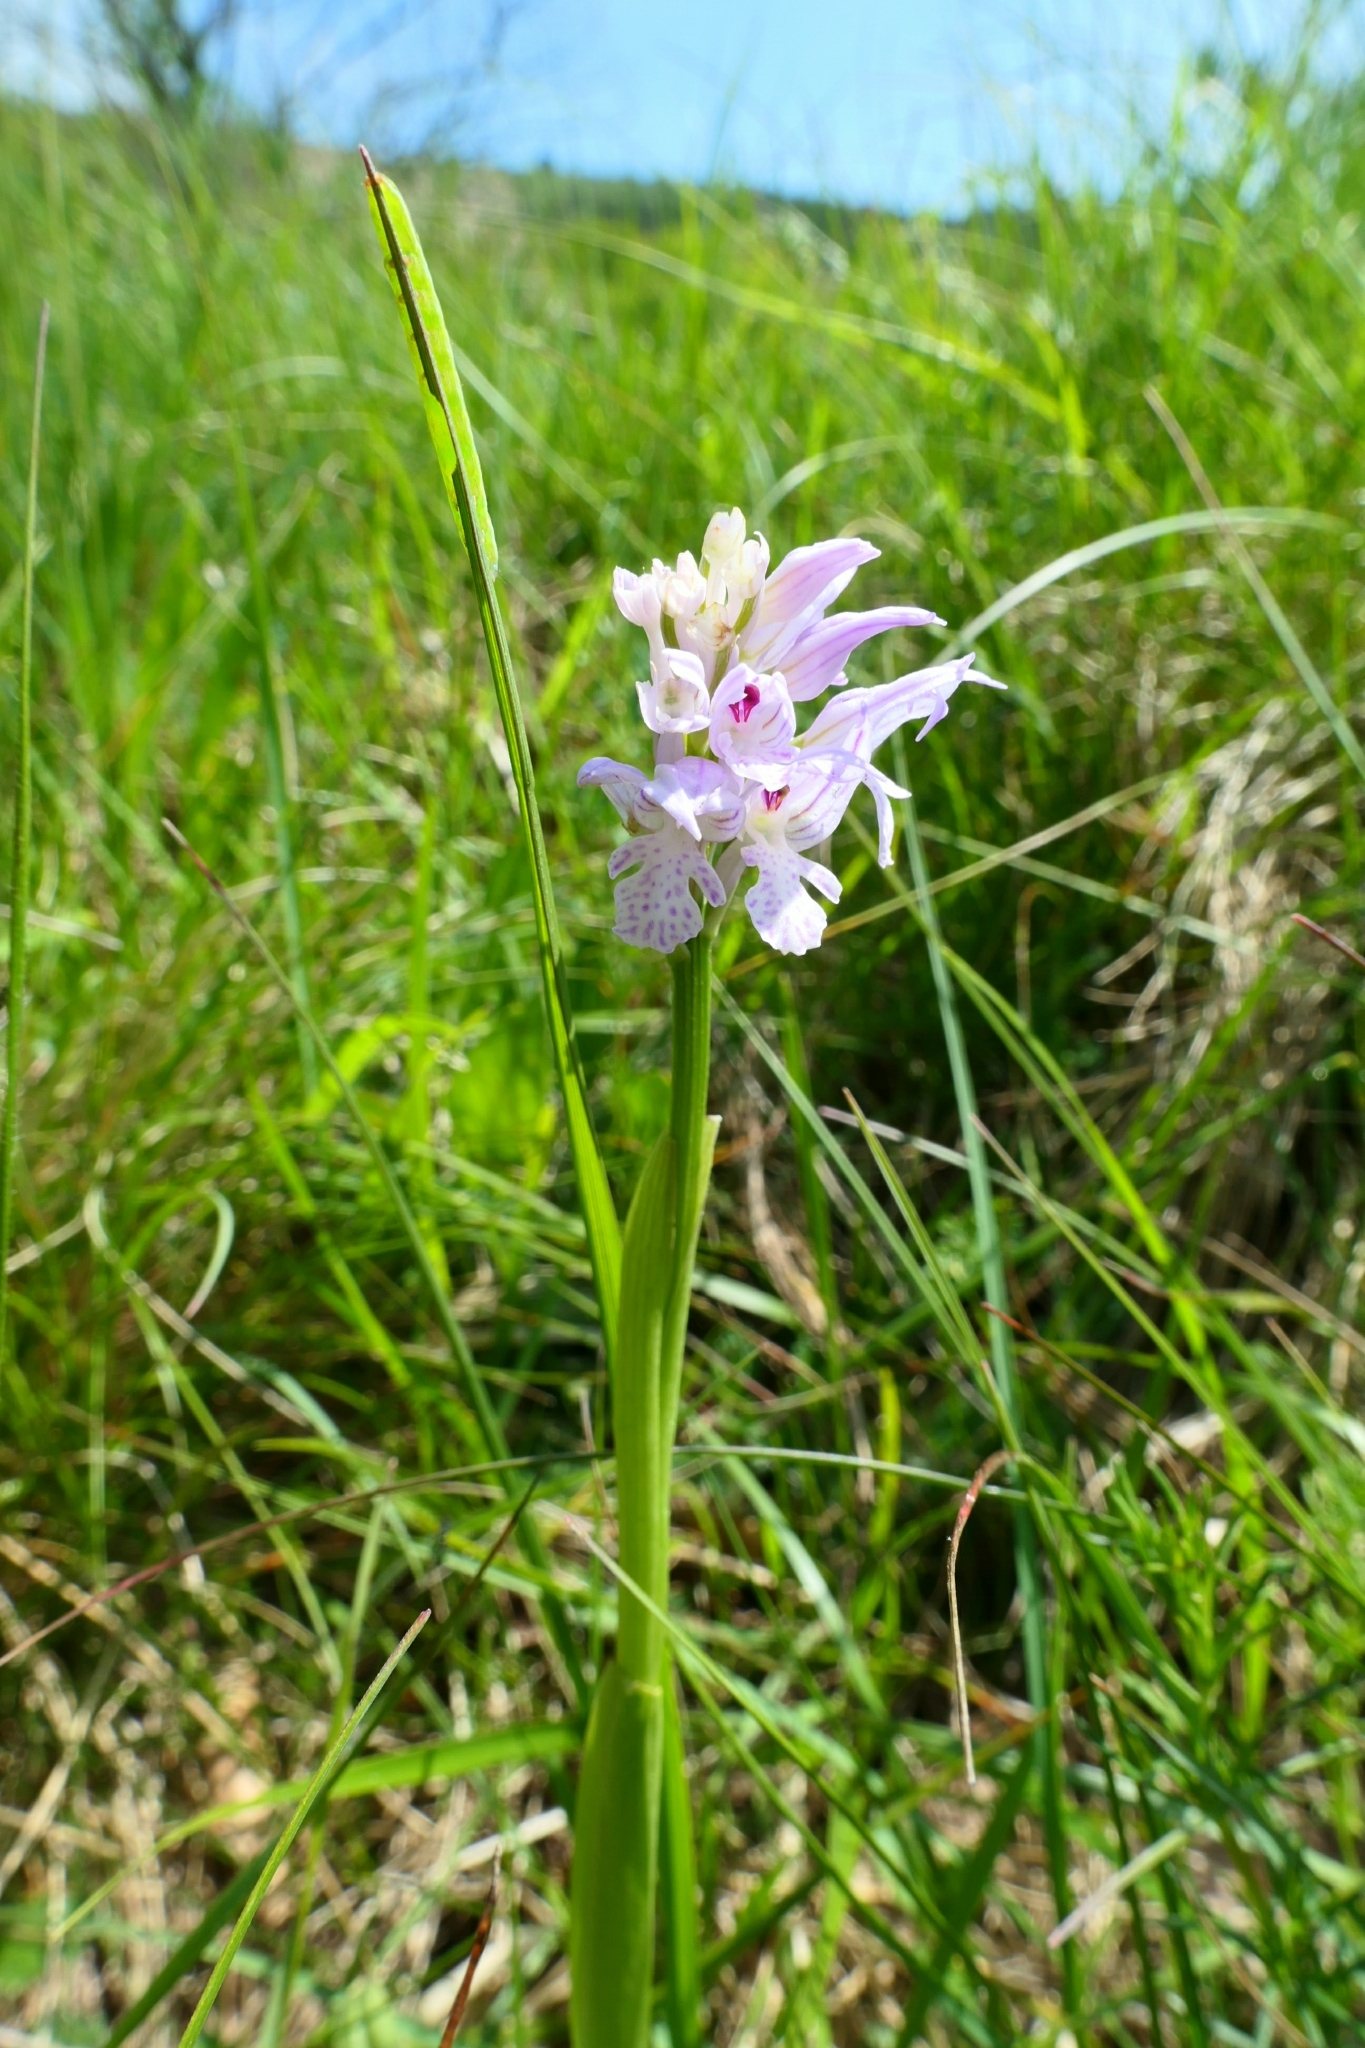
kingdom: Plantae
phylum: Tracheophyta
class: Liliopsida
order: Asparagales
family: Orchidaceae
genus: Neotinea
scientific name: Neotinea tridentata
